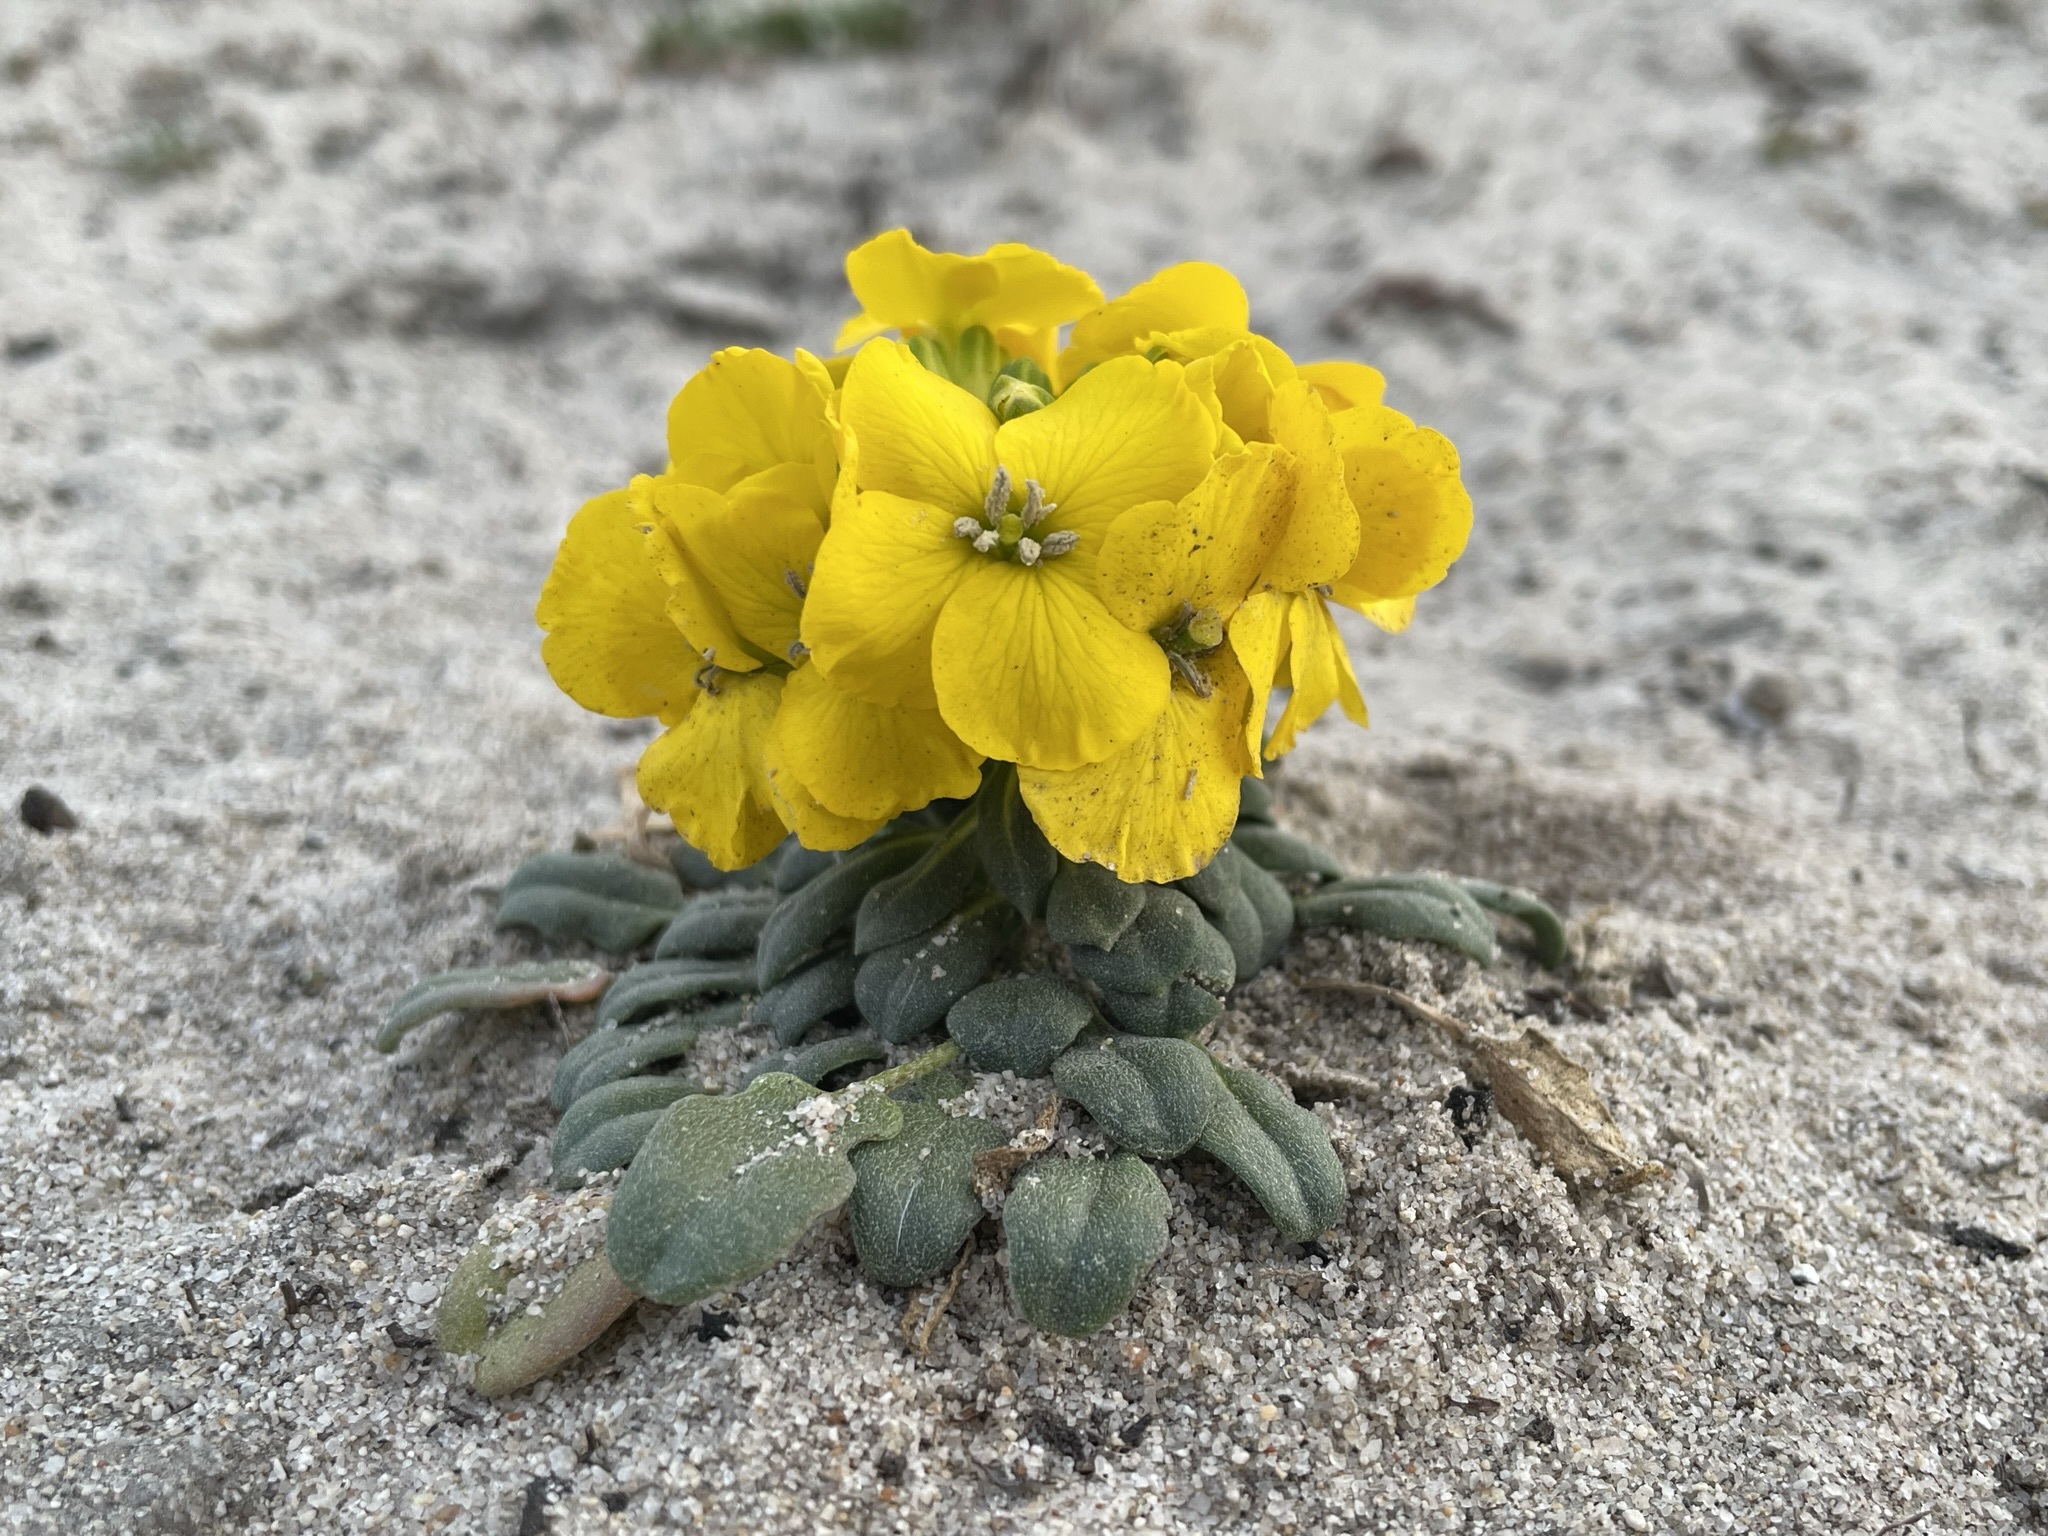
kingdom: Plantae
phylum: Tracheophyta
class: Magnoliopsida
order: Brassicales
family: Brassicaceae
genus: Erysimum
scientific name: Erysimum menziesii
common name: Menzies's wallflower
